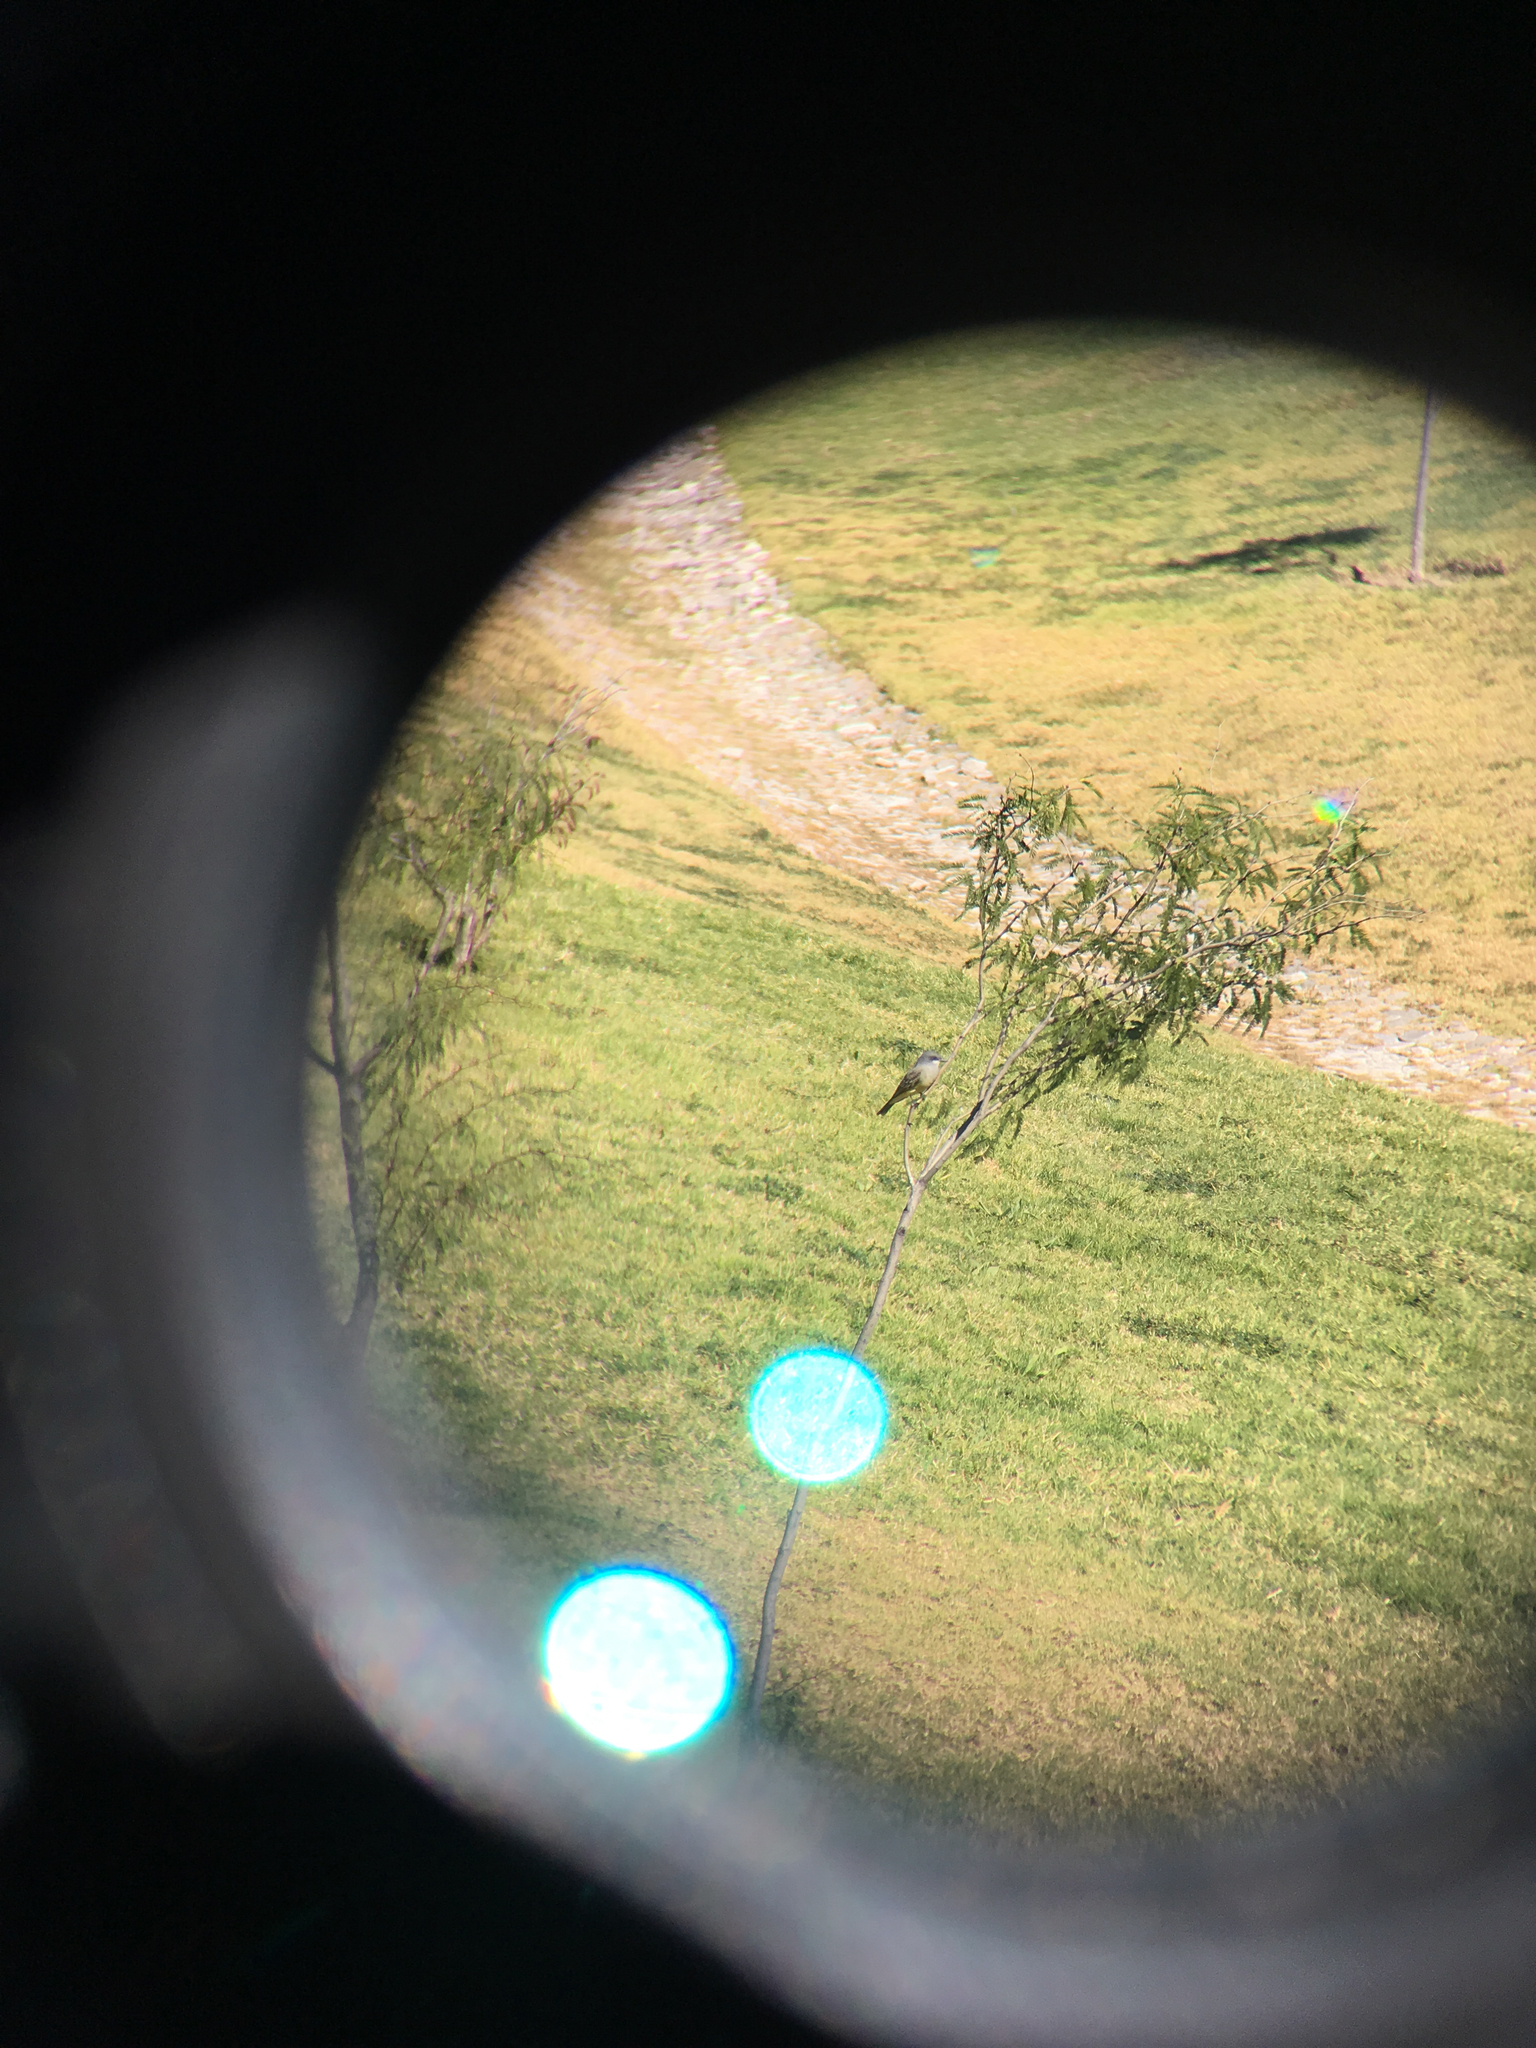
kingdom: Animalia
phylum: Chordata
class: Aves
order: Passeriformes
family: Tyrannidae
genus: Tyrannus
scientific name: Tyrannus vociferans
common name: Cassin's kingbird
